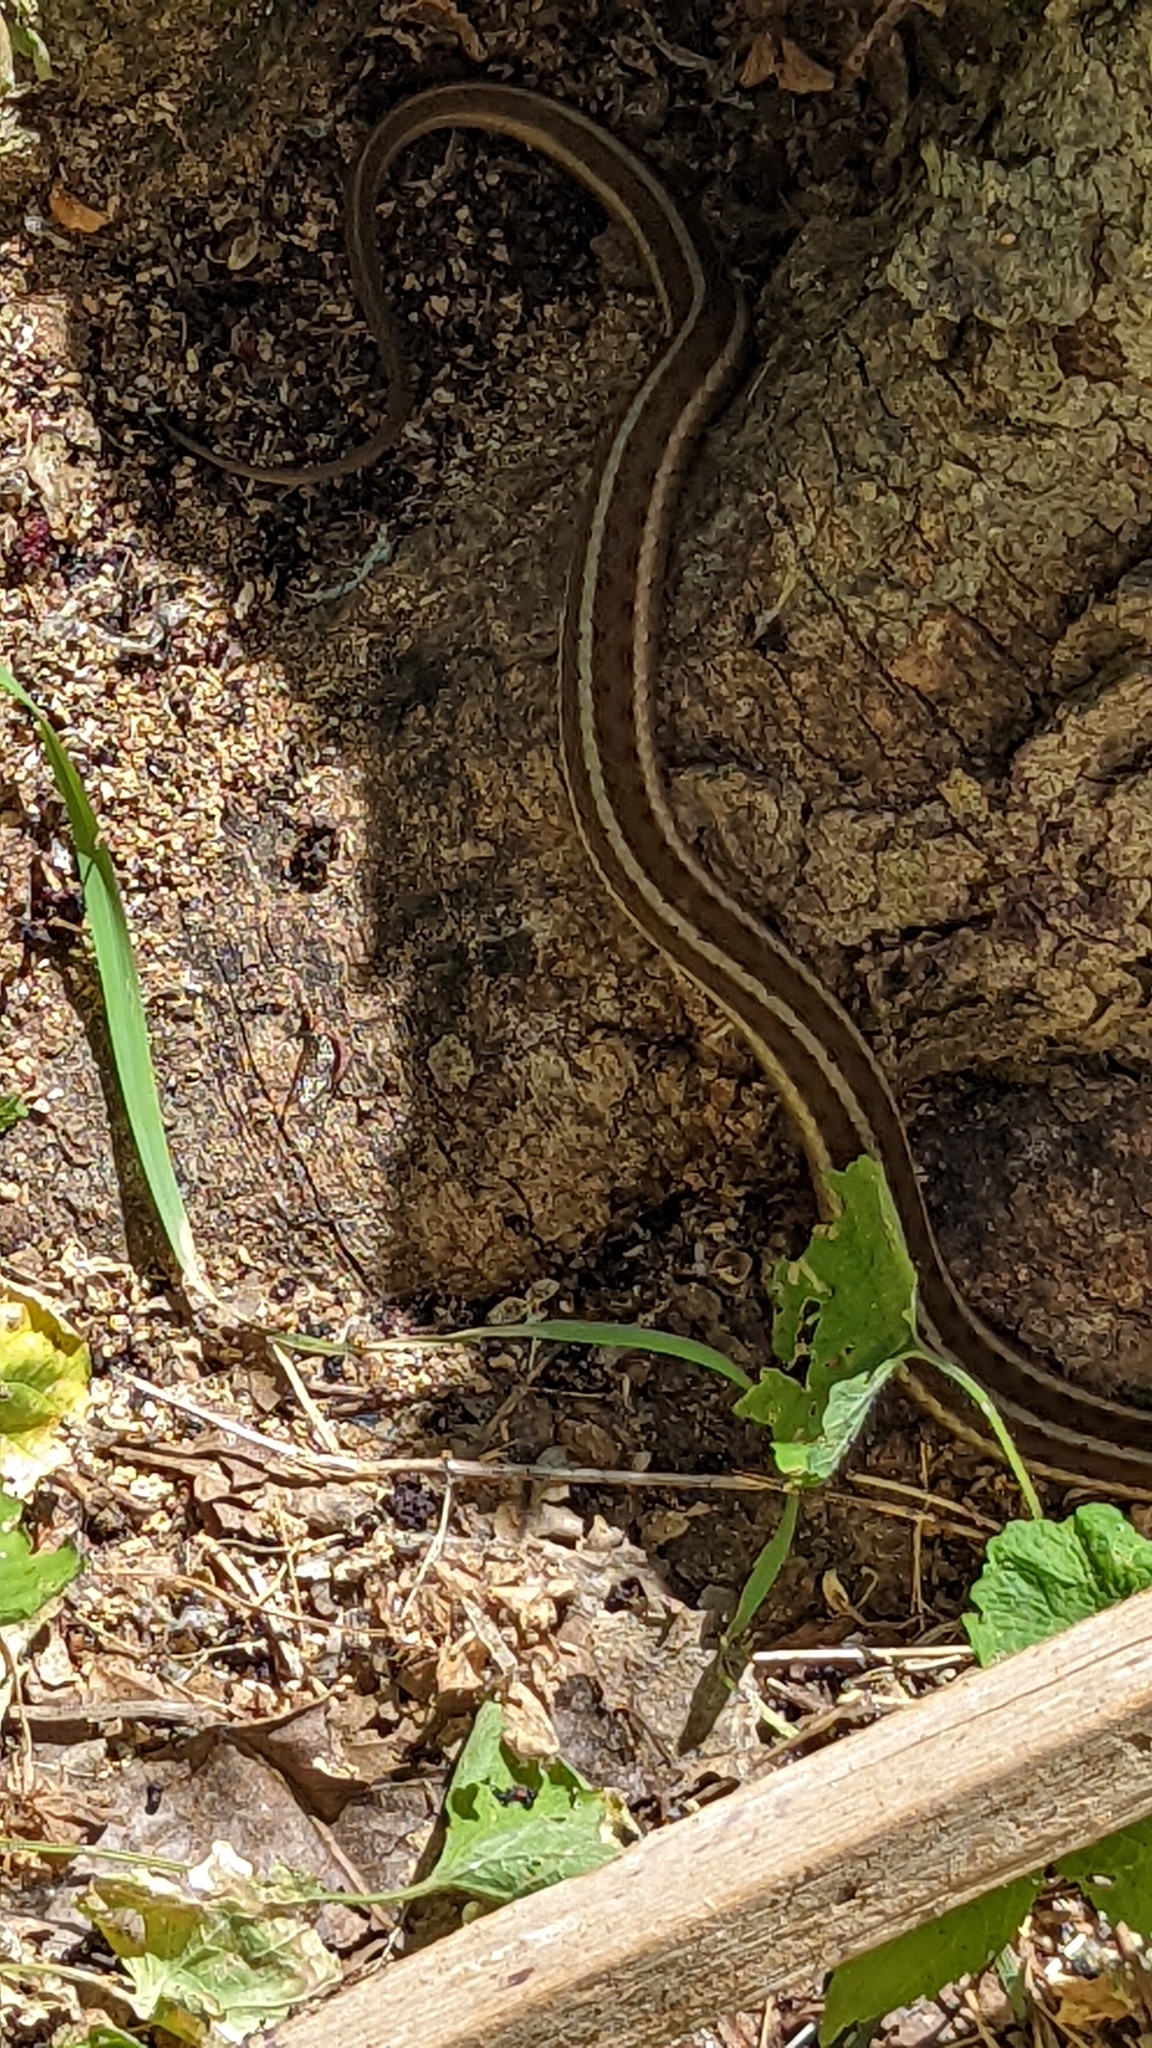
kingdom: Animalia
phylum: Chordata
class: Squamata
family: Colubridae
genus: Thamnophis
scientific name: Thamnophis sirtalis
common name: Common garter snake
